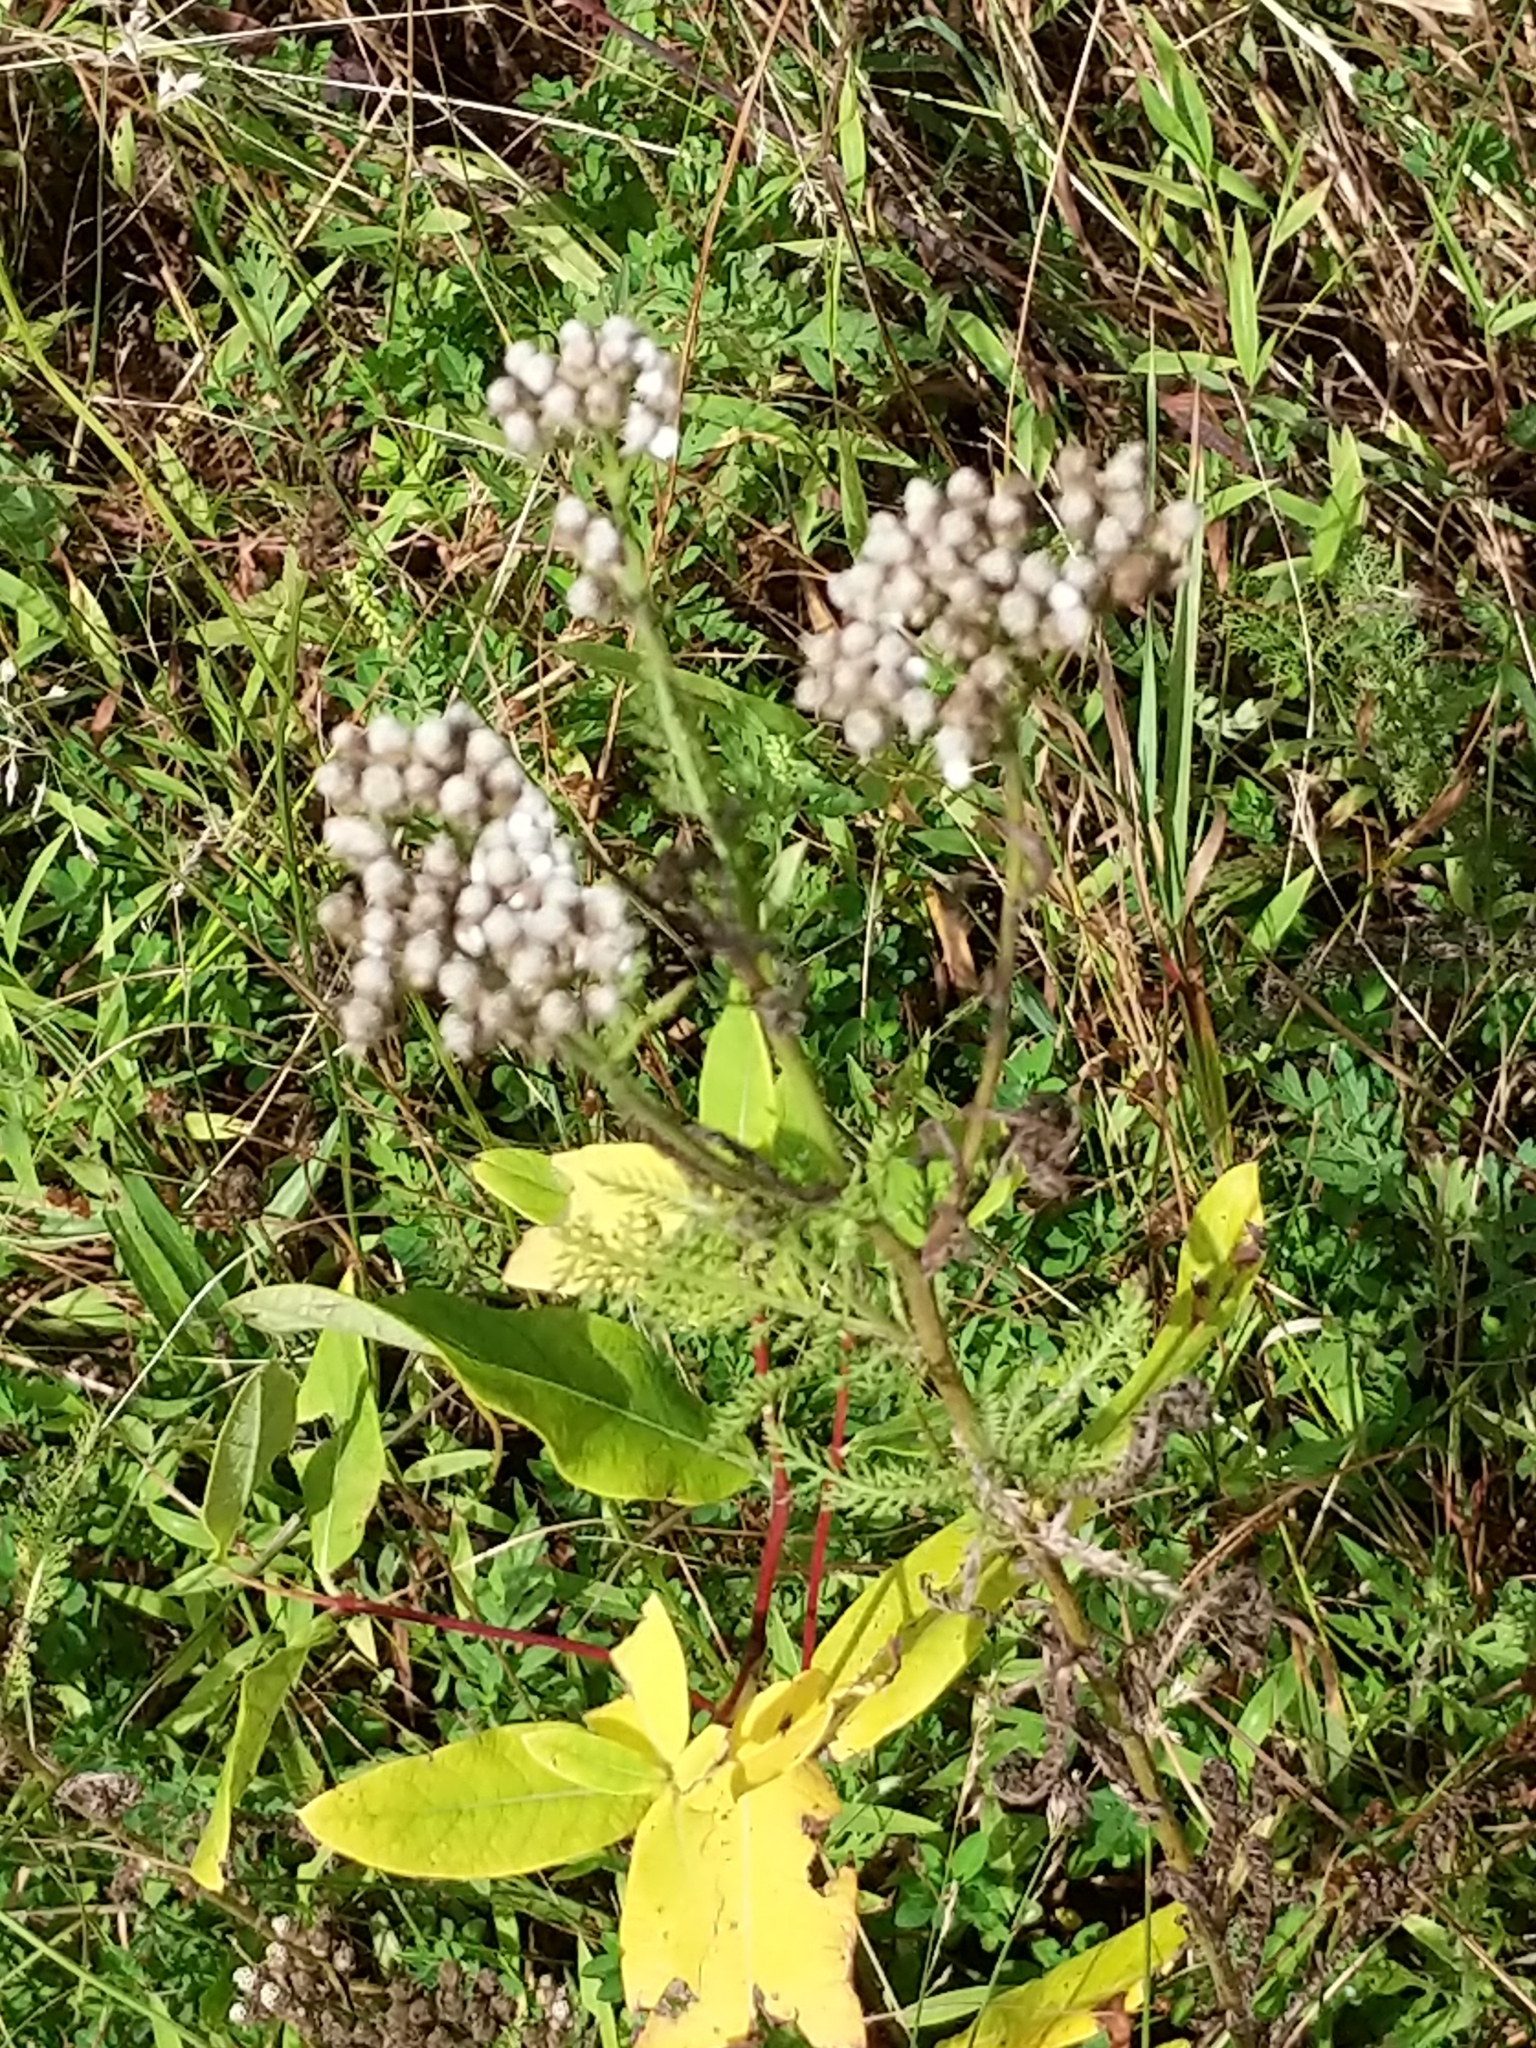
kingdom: Plantae
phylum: Tracheophyta
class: Magnoliopsida
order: Asterales
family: Asteraceae
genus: Achillea
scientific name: Achillea millefolium
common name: Yarrow
